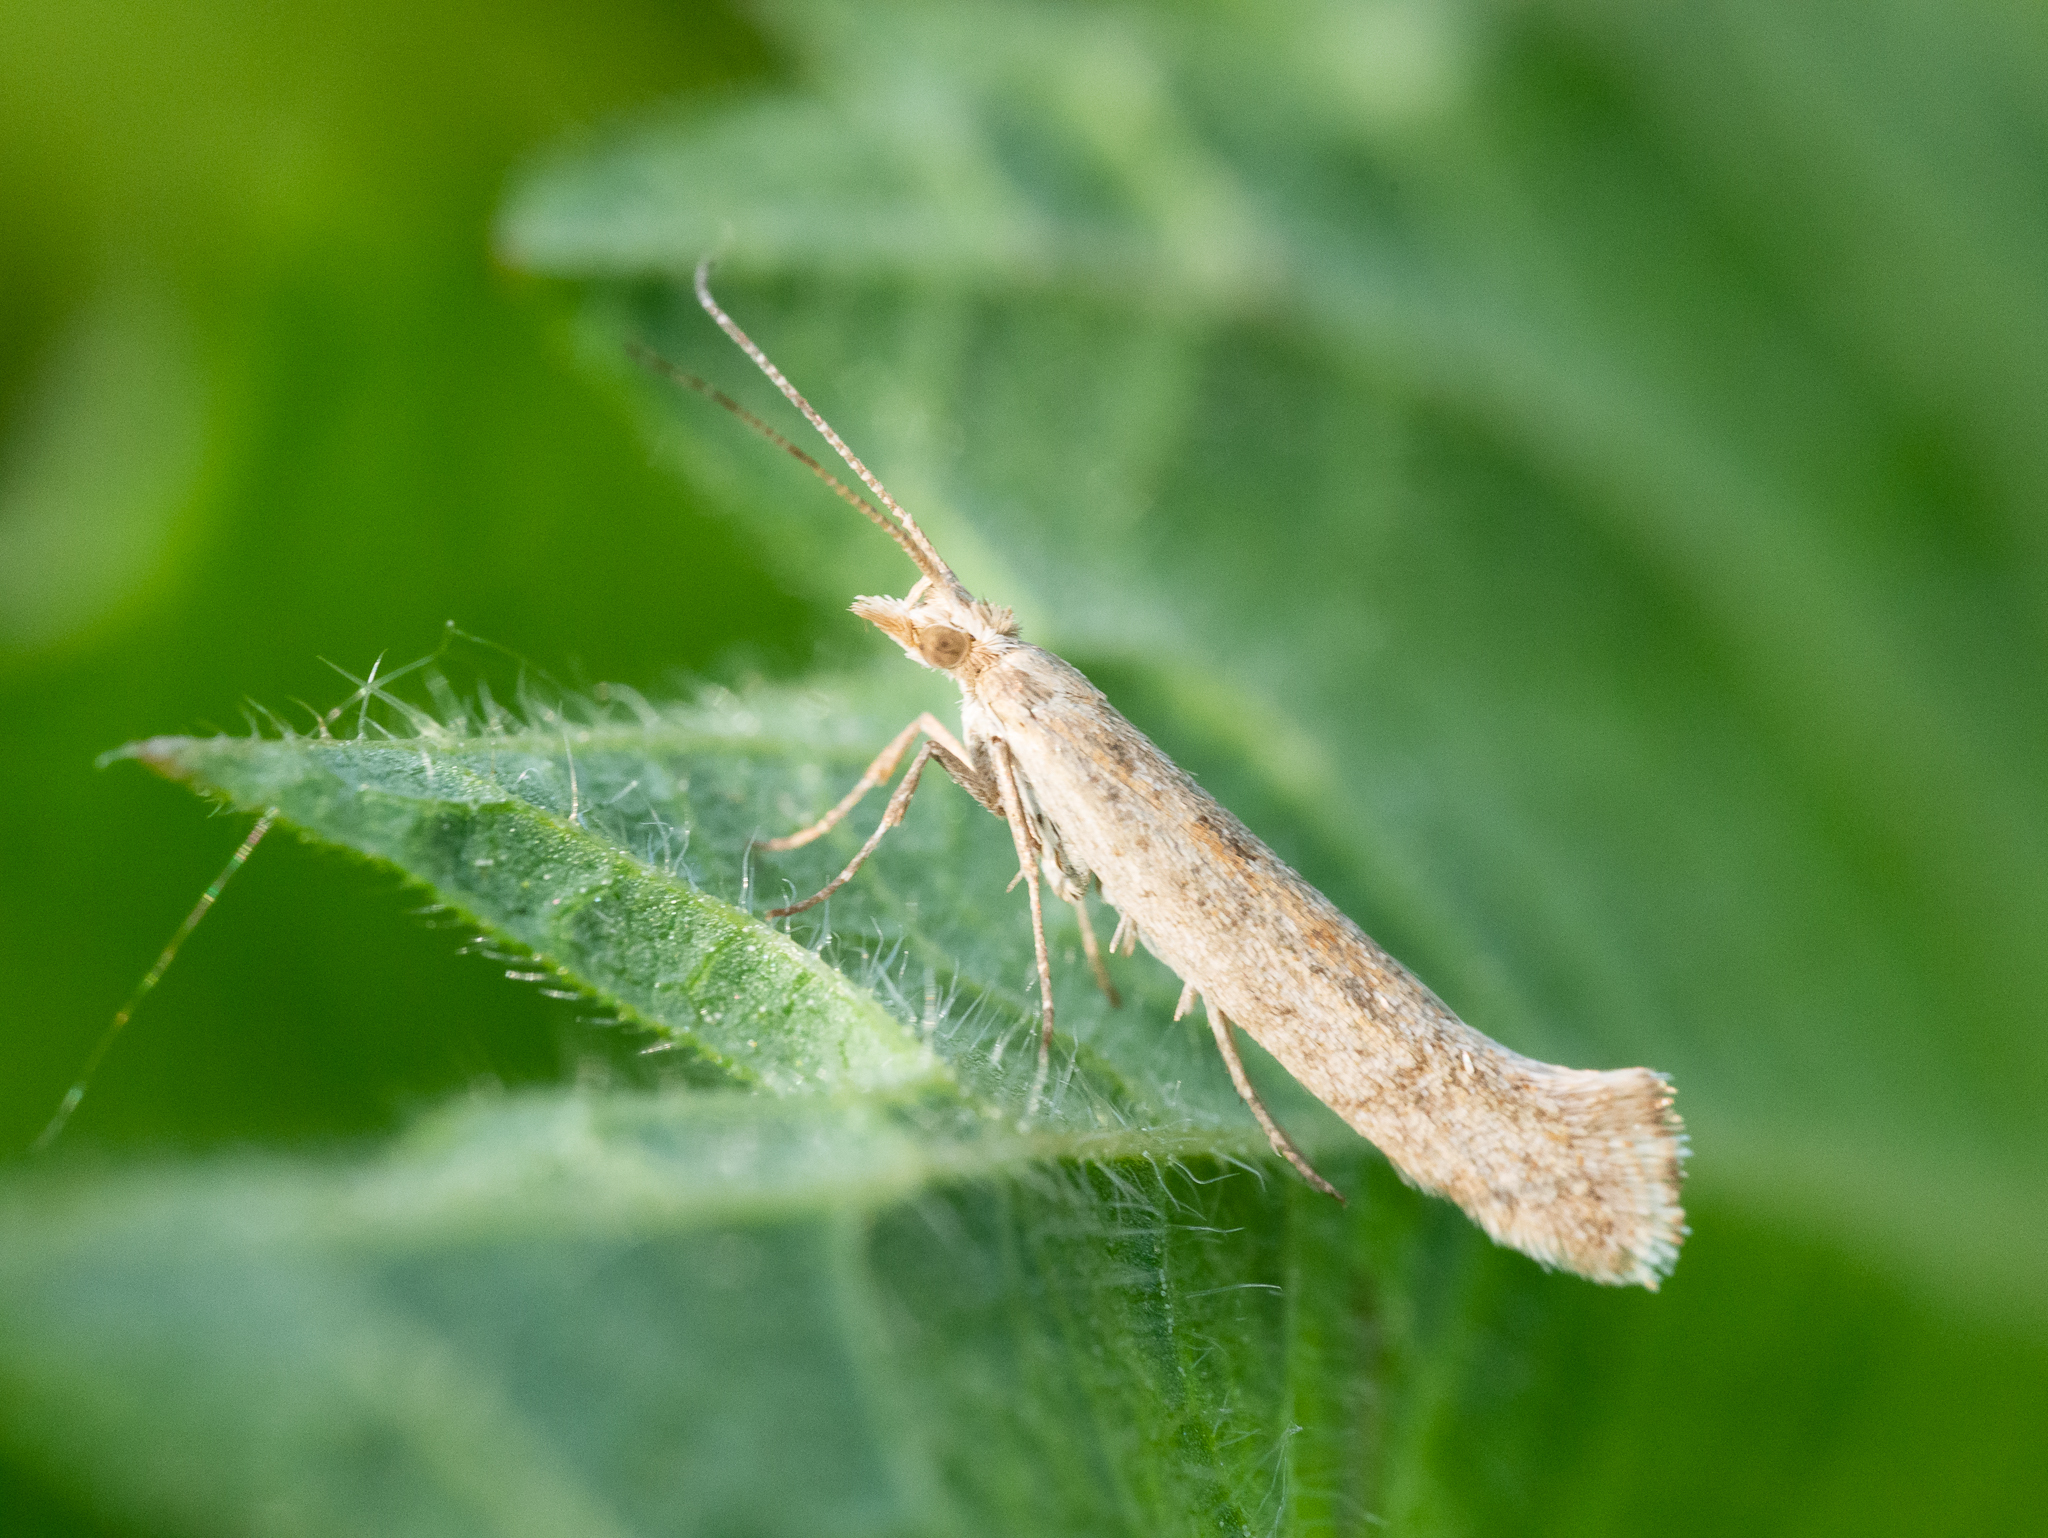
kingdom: Animalia
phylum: Arthropoda
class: Insecta
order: Lepidoptera
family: Plutellidae
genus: Plutella
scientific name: Plutella xylostella
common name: Diamond-back moth
